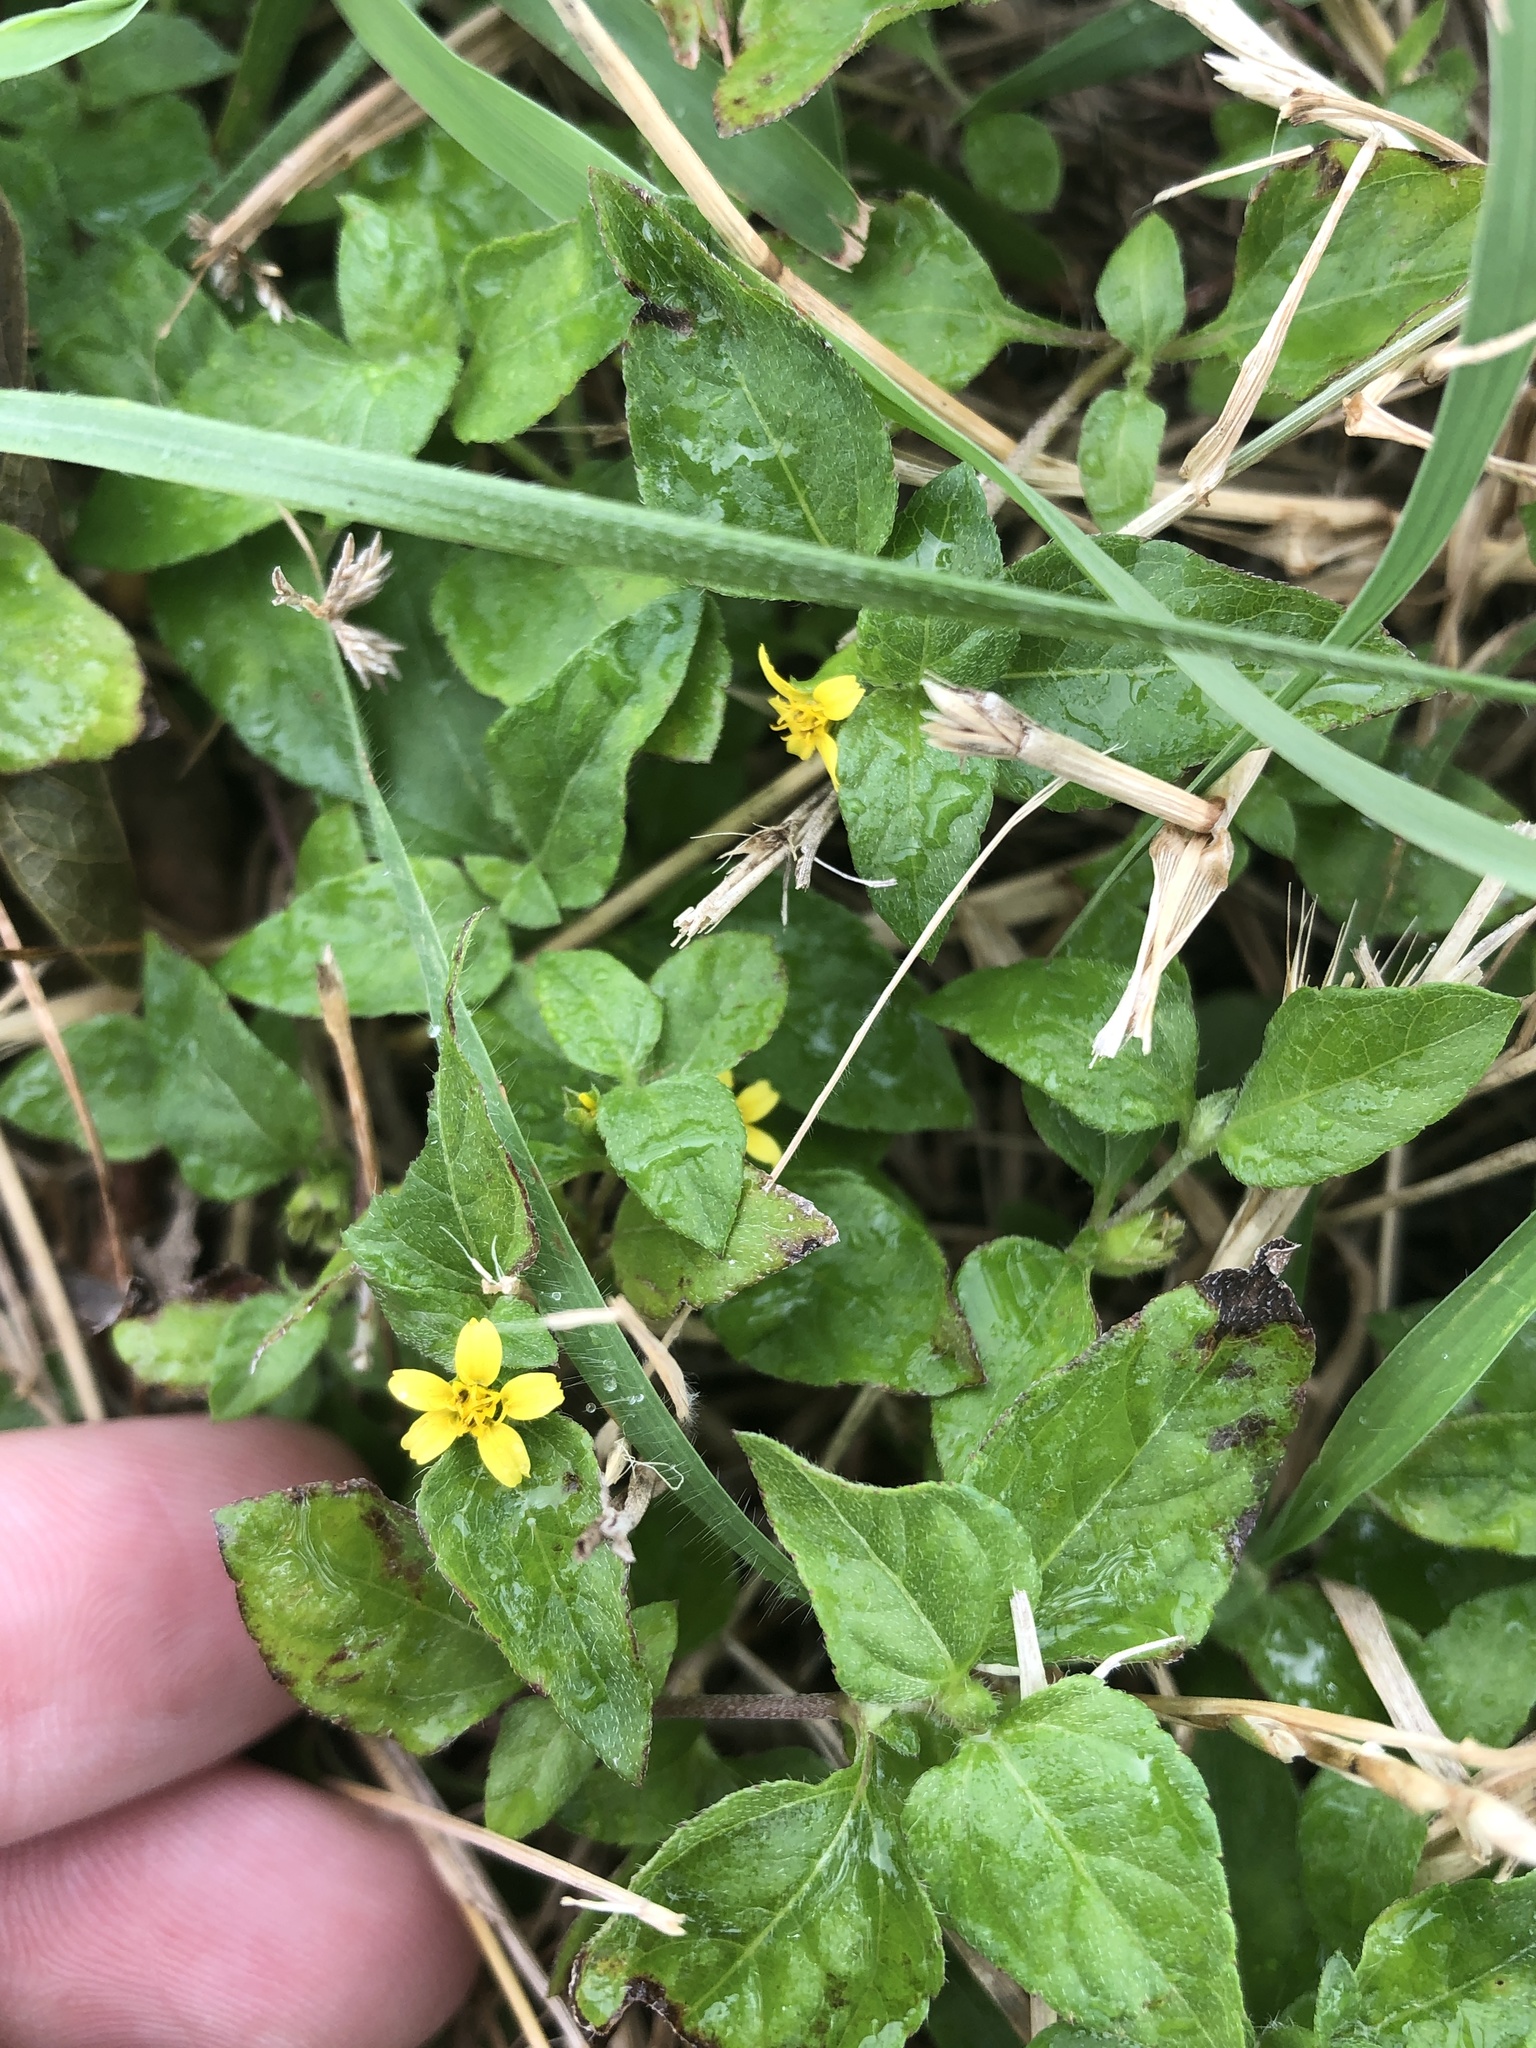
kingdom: Plantae
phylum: Tracheophyta
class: Magnoliopsida
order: Asterales
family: Asteraceae
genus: Calyptocarpus
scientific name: Calyptocarpus vialis
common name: Straggler daisy
